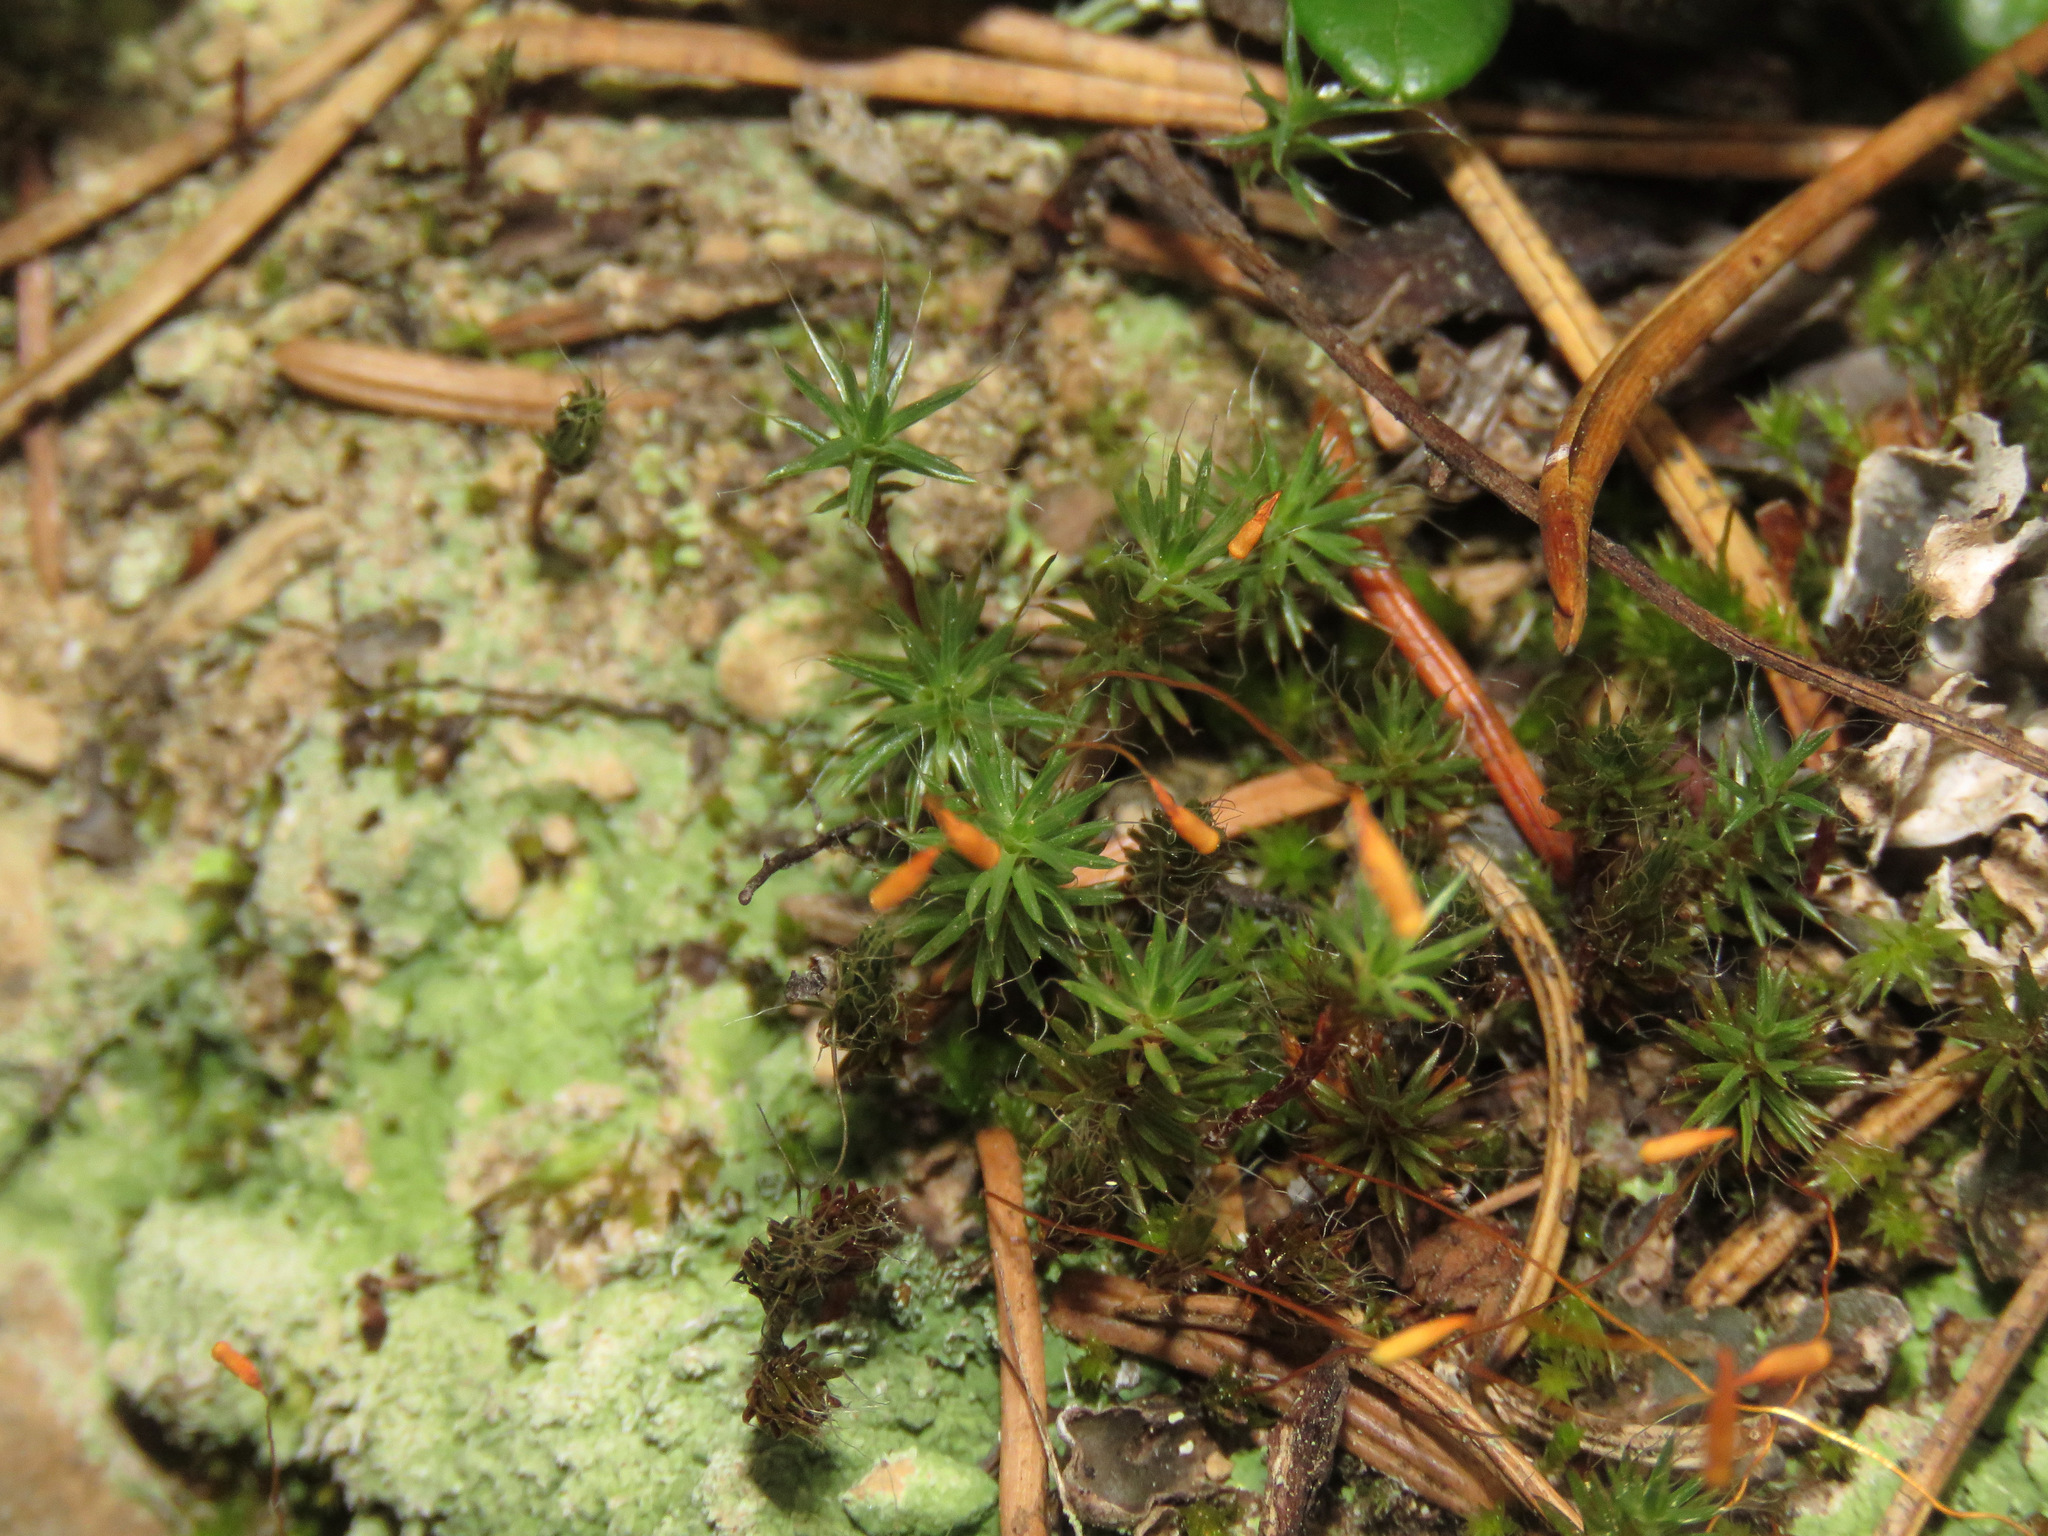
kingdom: Plantae
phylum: Bryophyta
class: Polytrichopsida
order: Polytrichales
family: Polytrichaceae
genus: Polytrichum
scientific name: Polytrichum piliferum
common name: Bristly haircap
